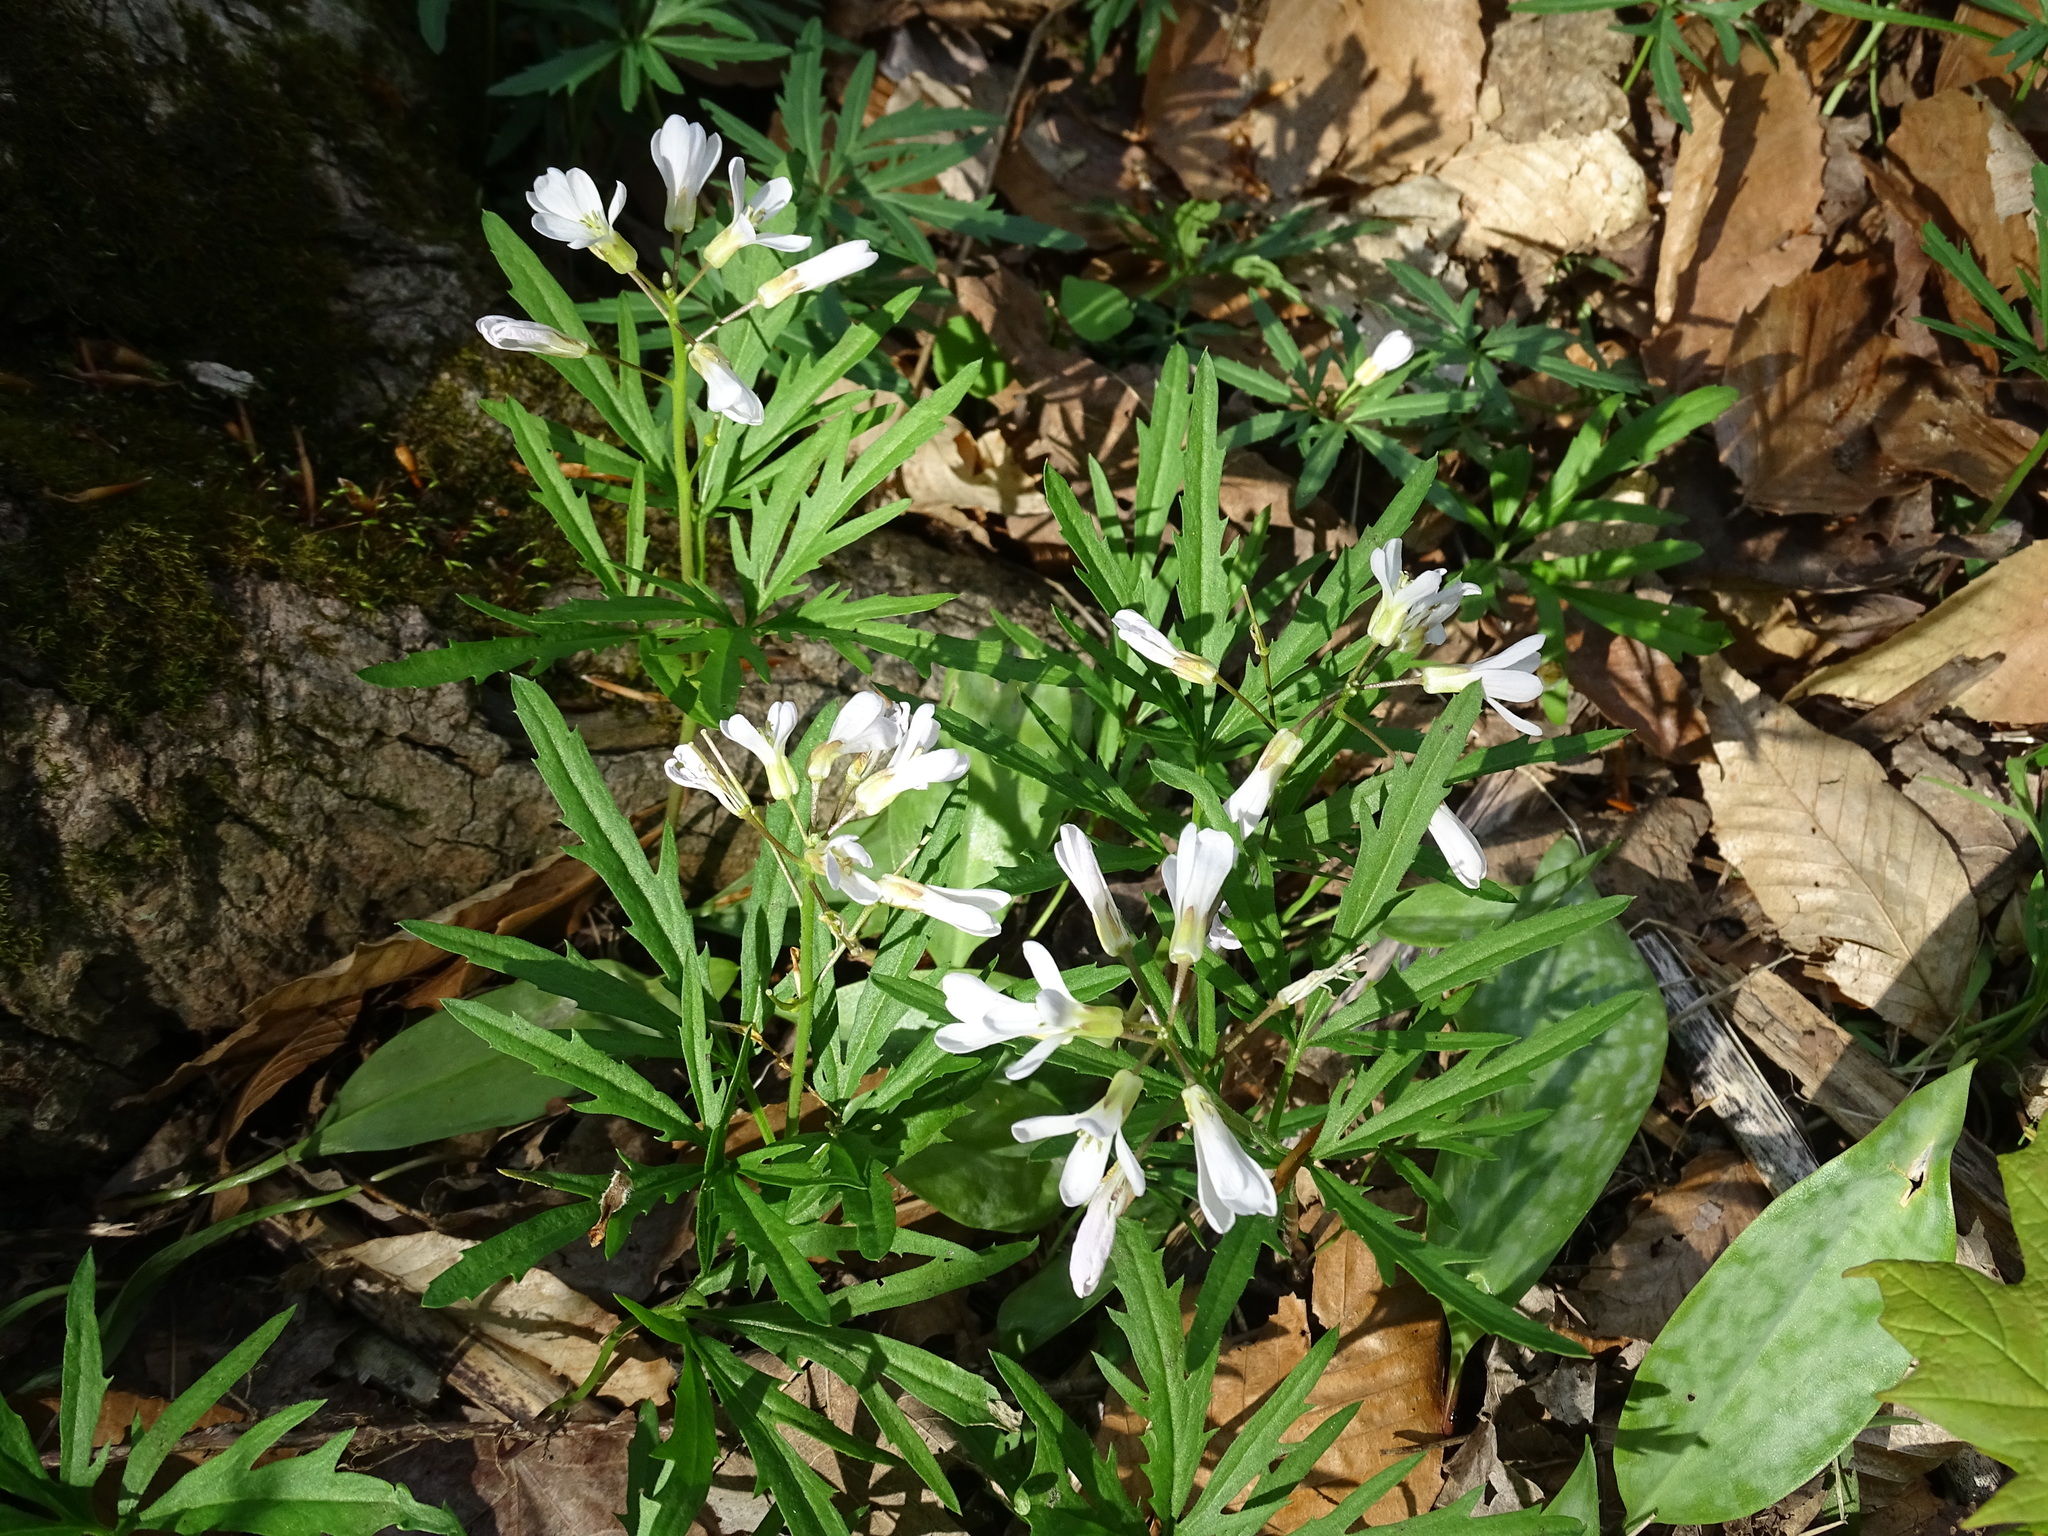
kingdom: Plantae
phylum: Tracheophyta
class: Magnoliopsida
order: Brassicales
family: Brassicaceae
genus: Cardamine
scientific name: Cardamine concatenata
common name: Cut-leaf toothcup
